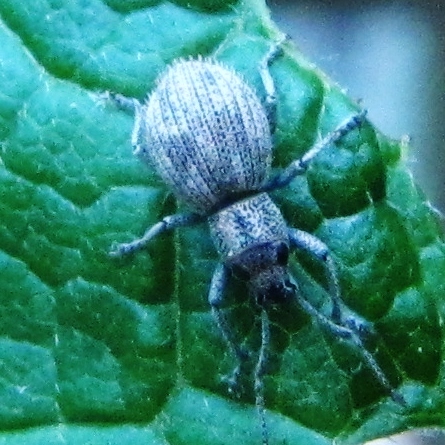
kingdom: Animalia
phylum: Arthropoda
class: Insecta
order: Coleoptera
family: Curculionidae
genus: Calomycterus
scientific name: Calomycterus setarius
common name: Weevil
